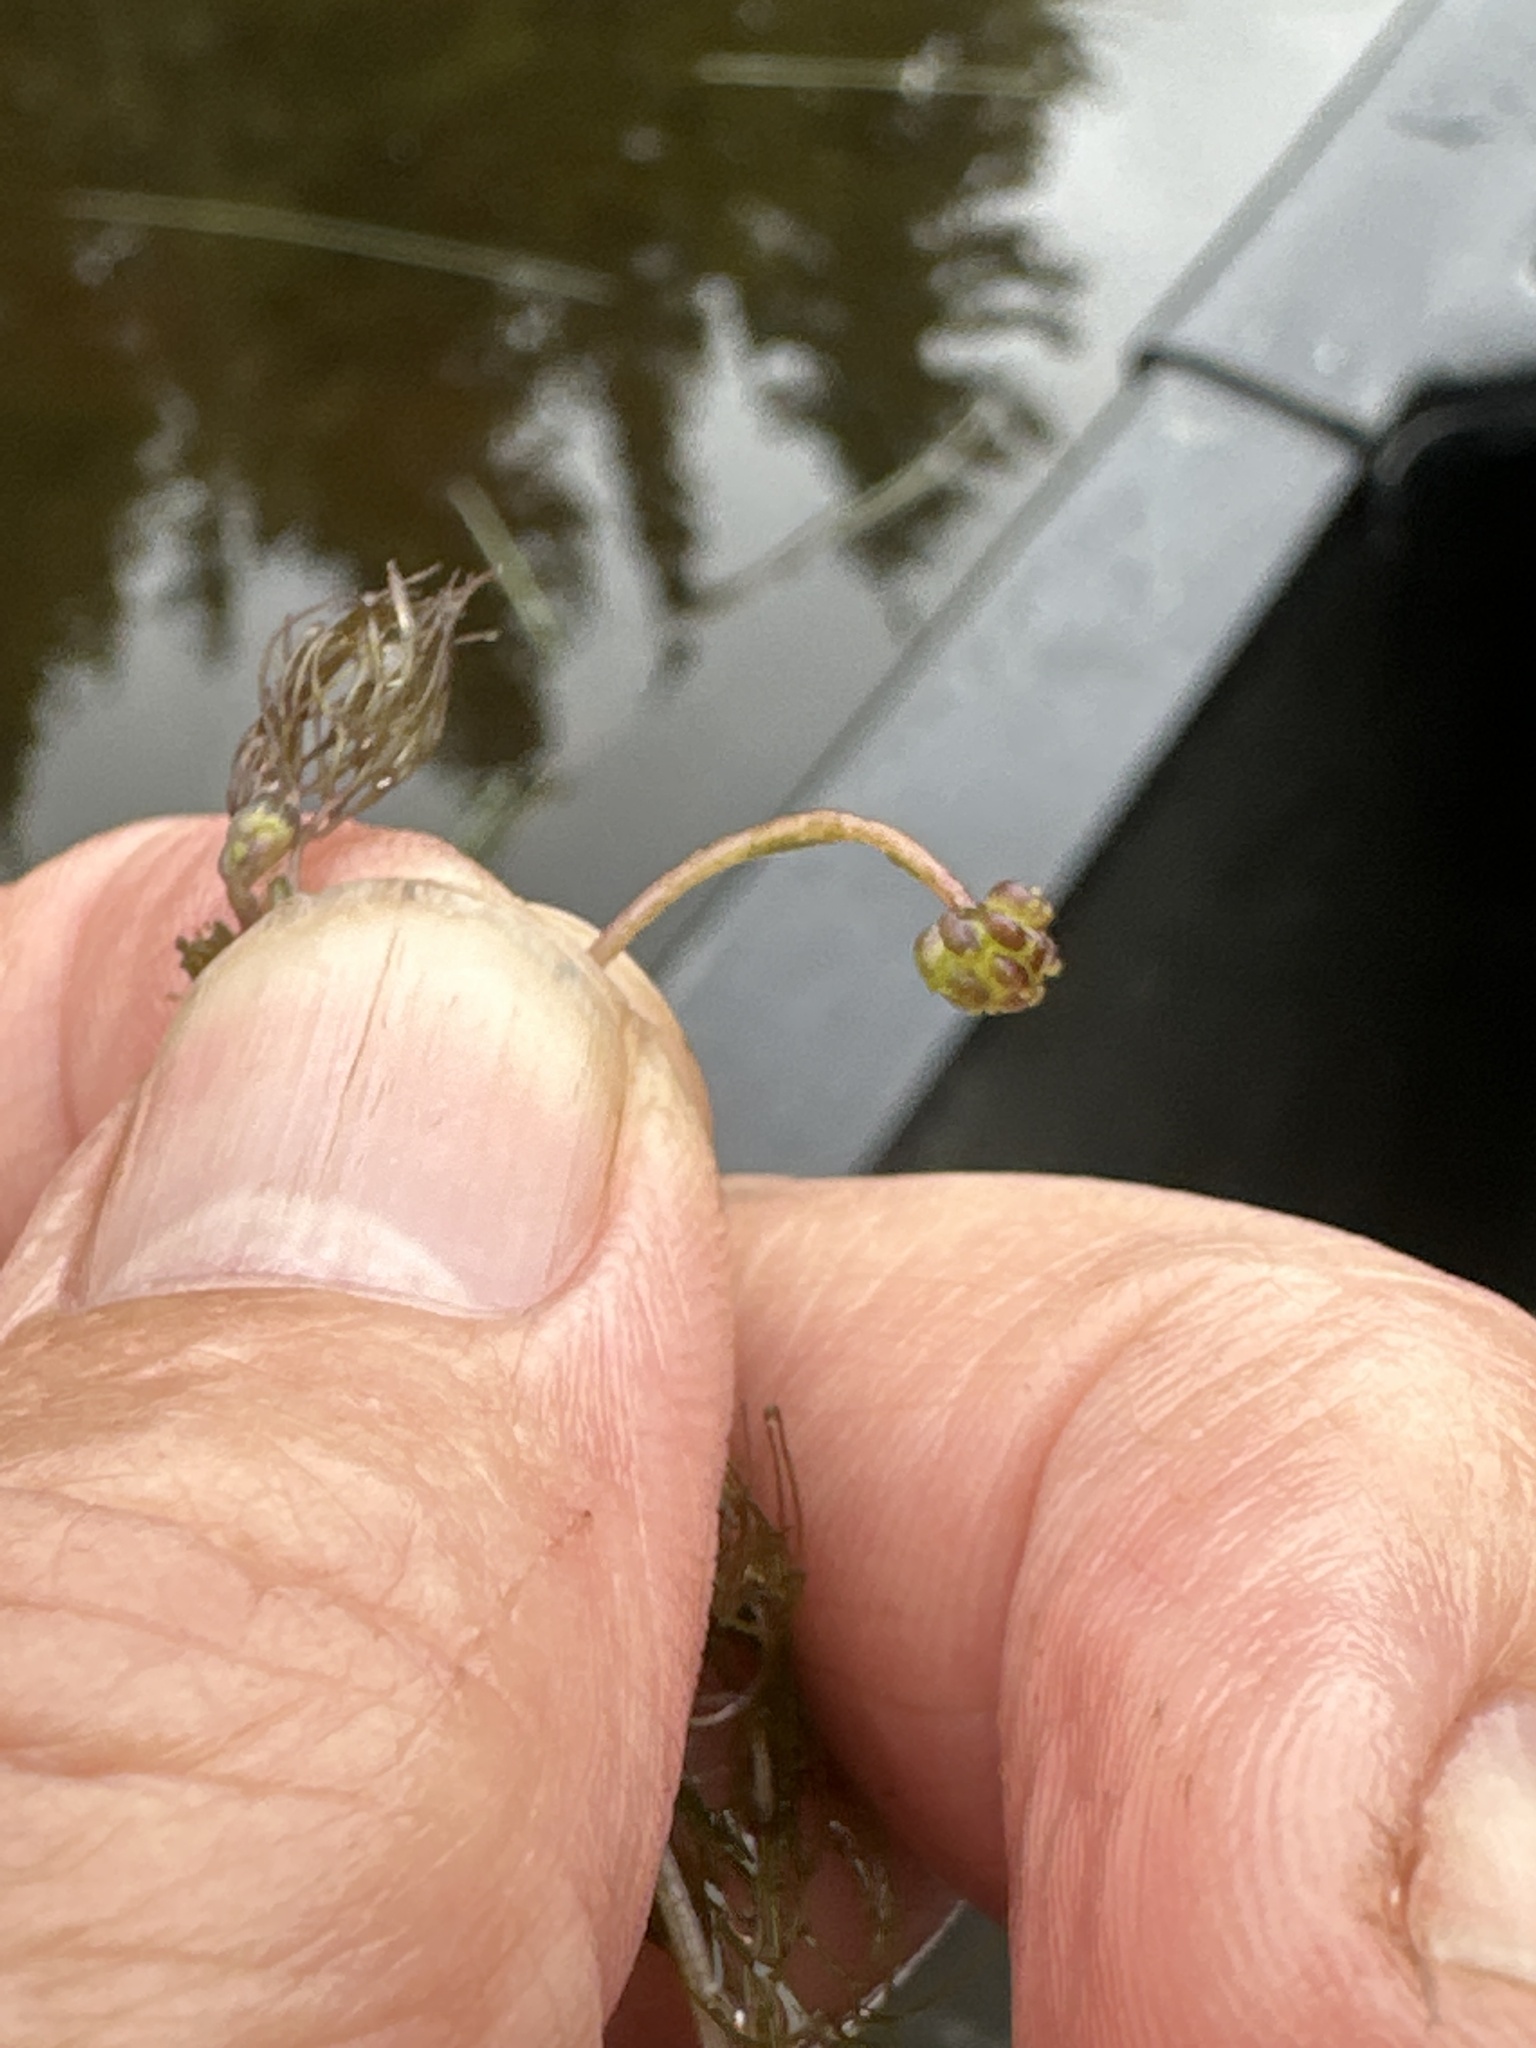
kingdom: Plantae
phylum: Tracheophyta
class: Magnoliopsida
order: Ranunculales
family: Ranunculaceae
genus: Ranunculus
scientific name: Ranunculus aquatilis
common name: Common water-crowfoot
